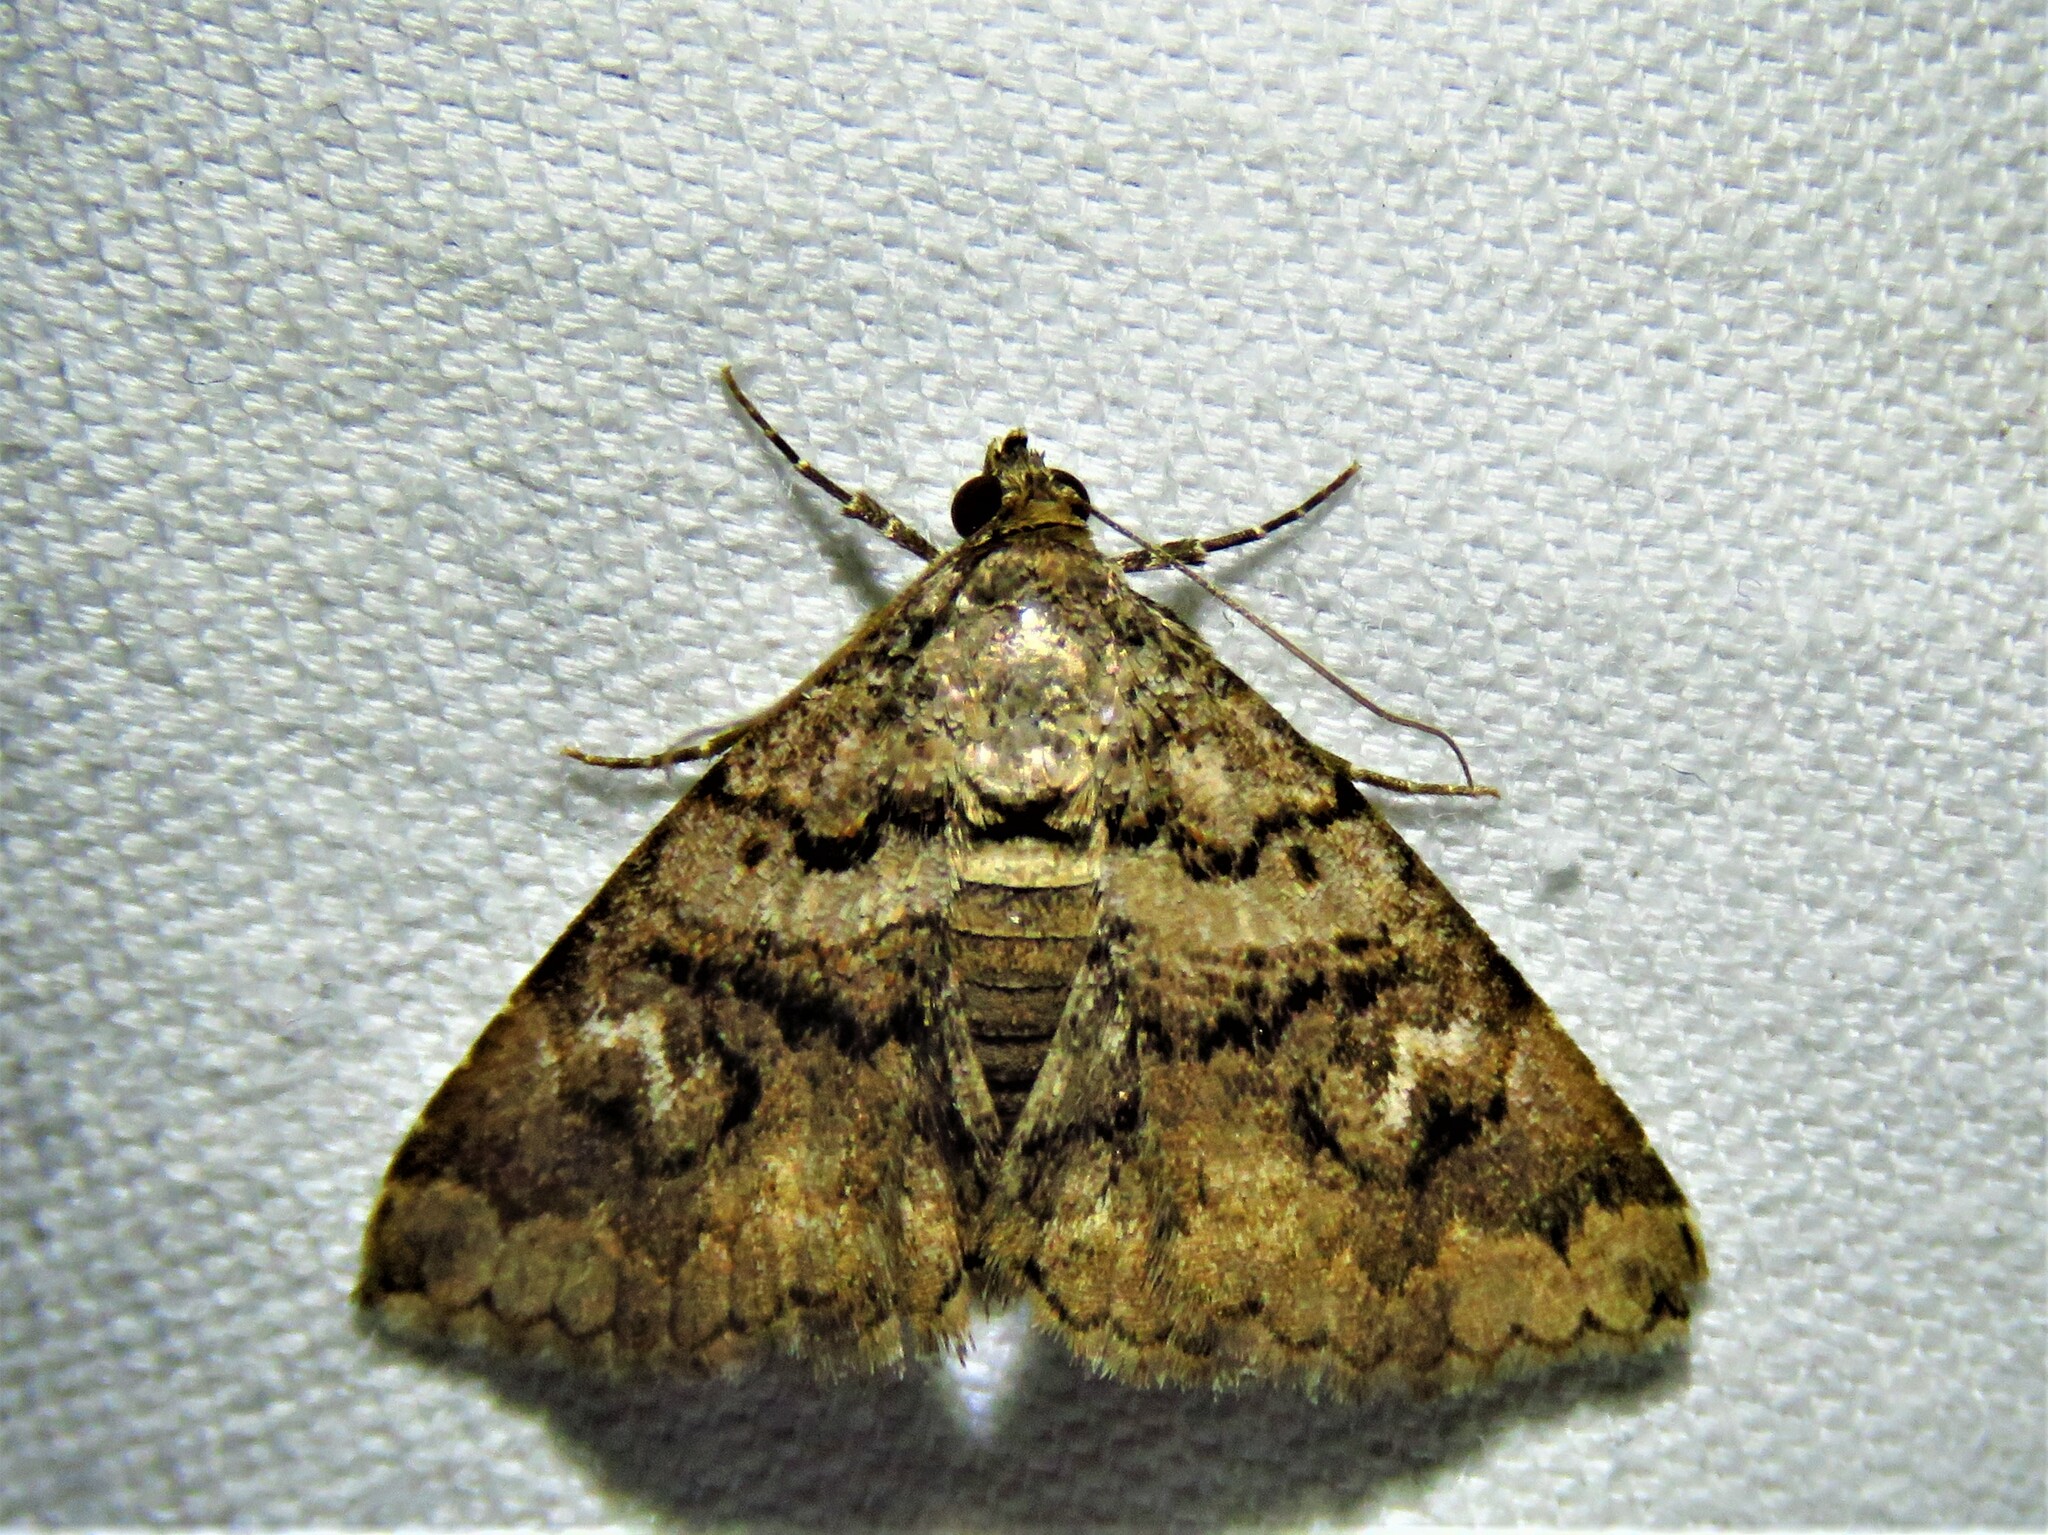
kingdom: Animalia
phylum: Arthropoda
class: Insecta
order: Lepidoptera
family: Erebidae
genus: Toxonprucha
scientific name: Toxonprucha excavata
